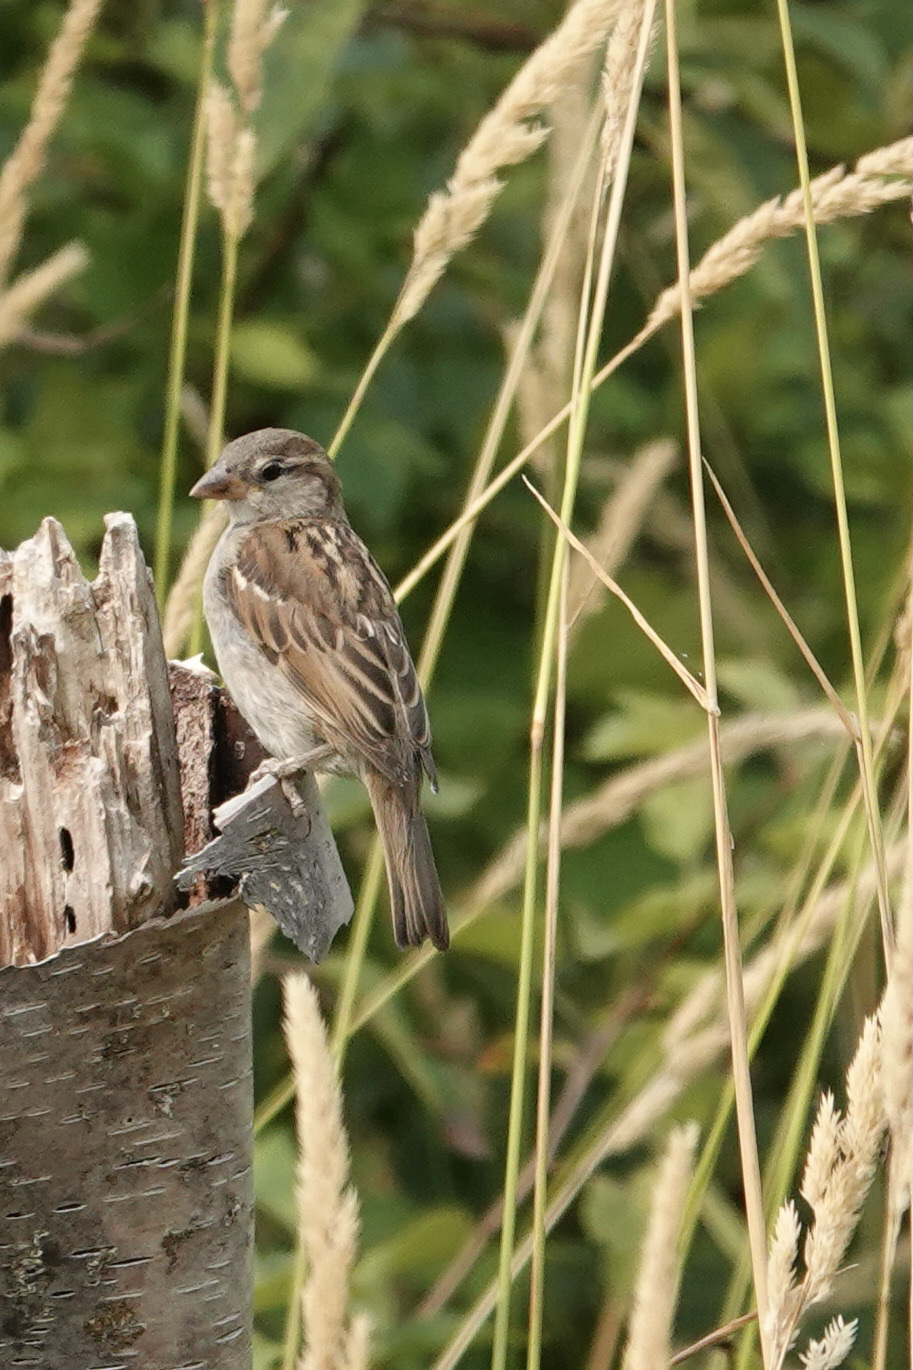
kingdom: Animalia
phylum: Chordata
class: Aves
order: Passeriformes
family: Passeridae
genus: Passer
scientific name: Passer domesticus
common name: House sparrow
